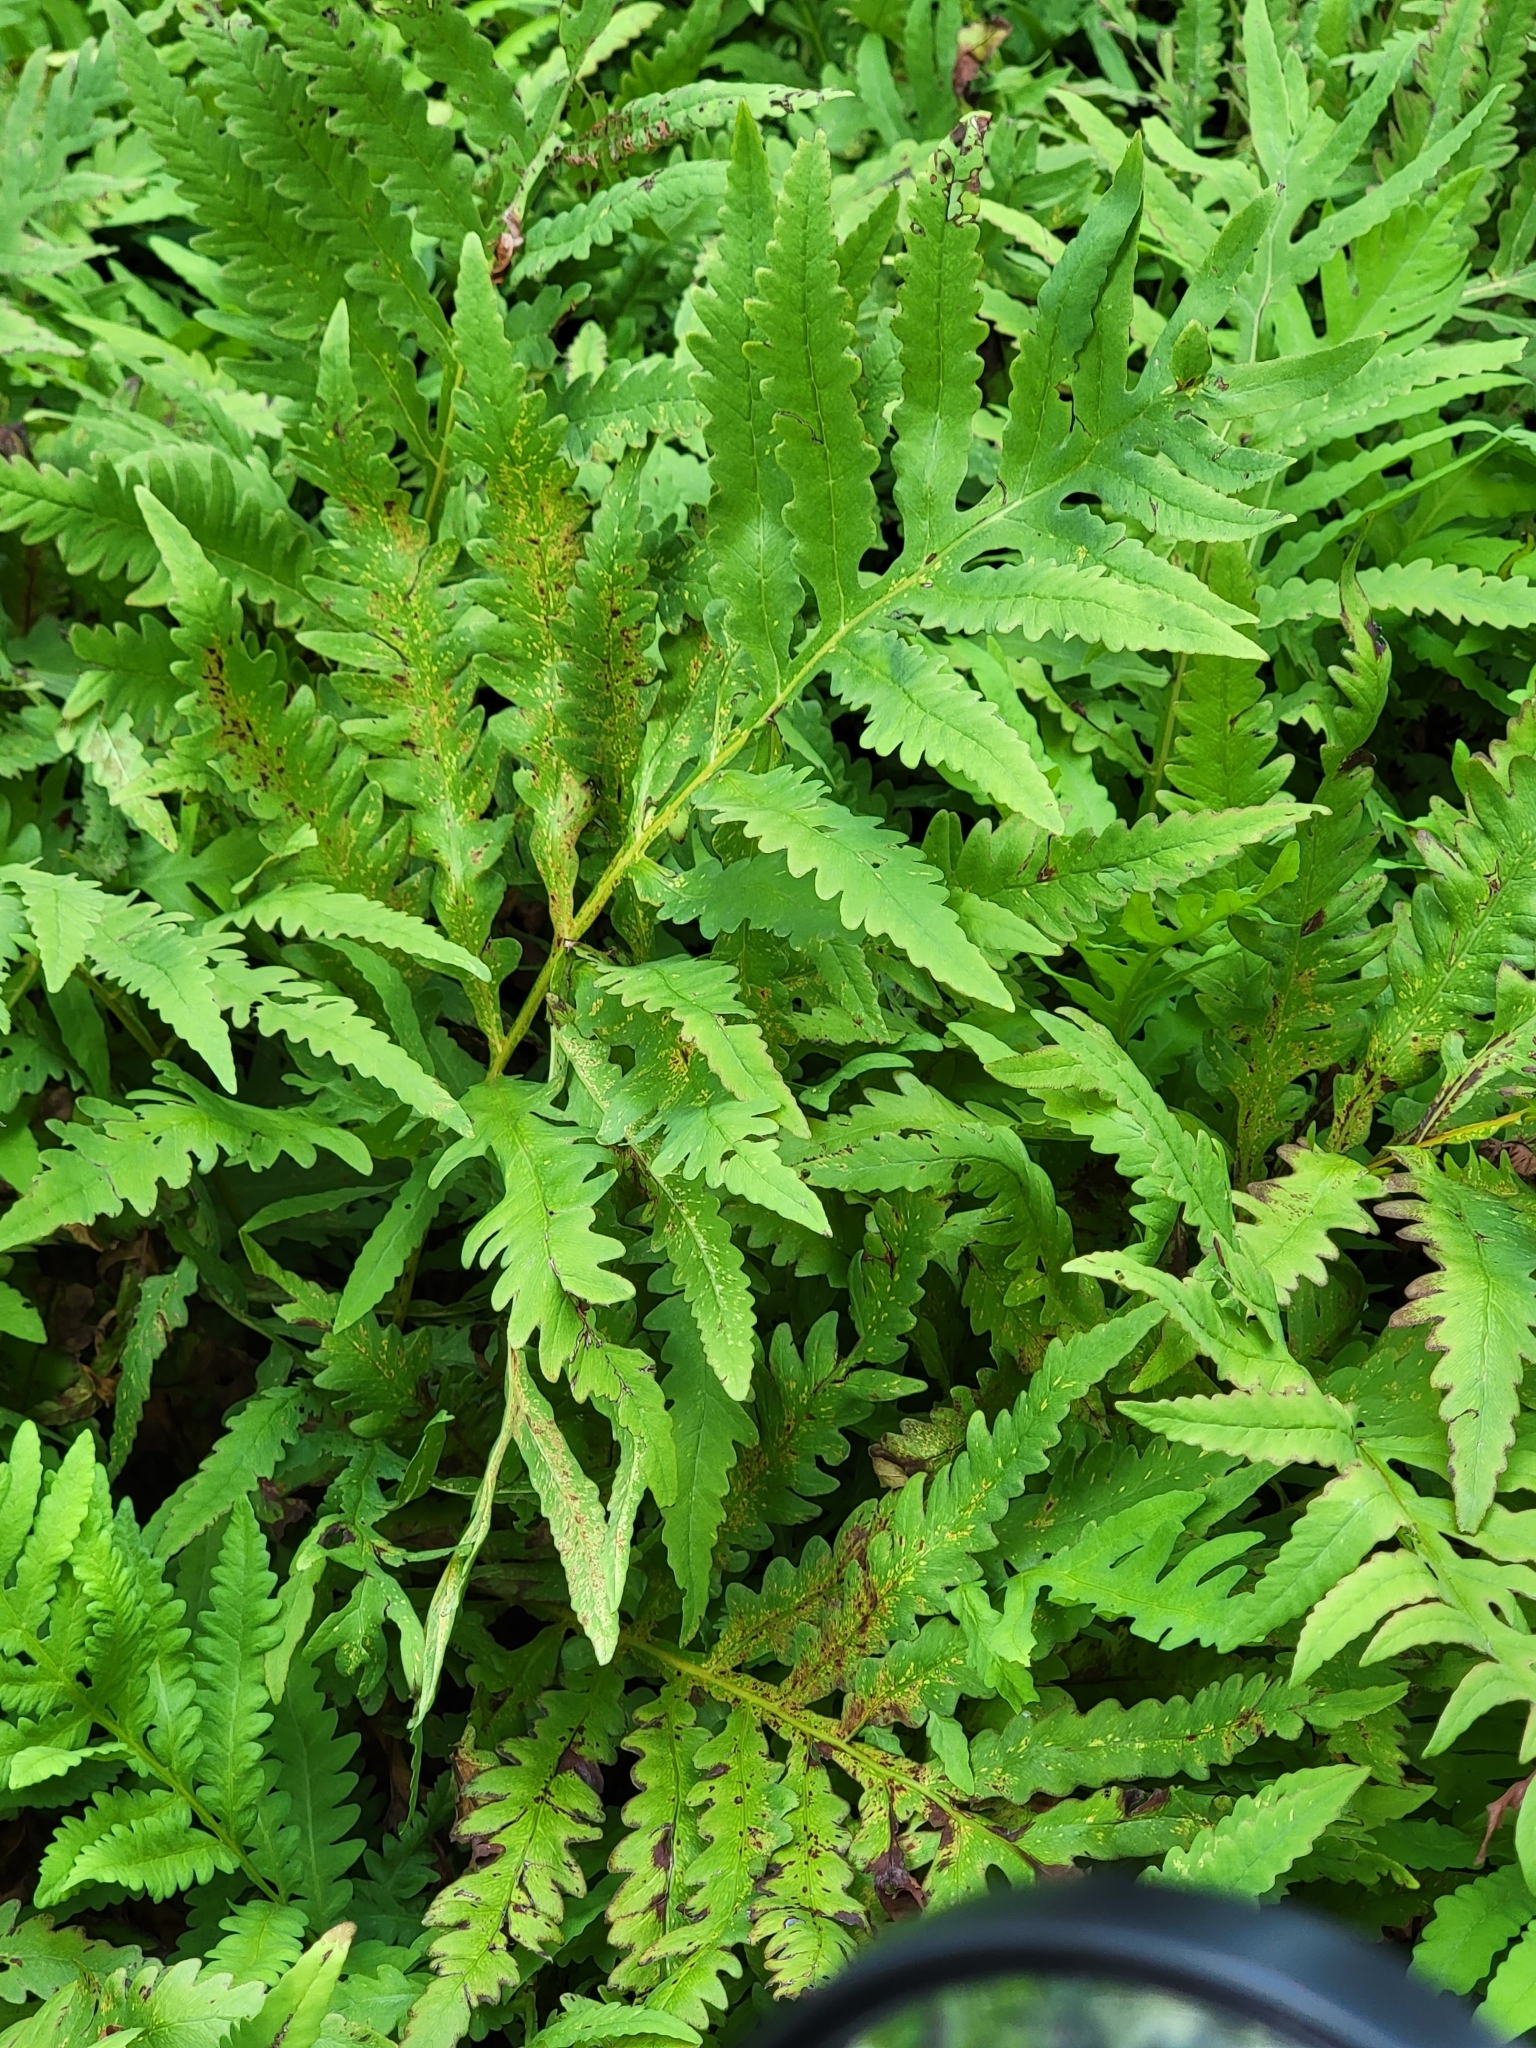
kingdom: Plantae
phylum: Tracheophyta
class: Polypodiopsida
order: Polypodiales
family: Onocleaceae
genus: Onoclea
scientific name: Onoclea sensibilis
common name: Sensitive fern
